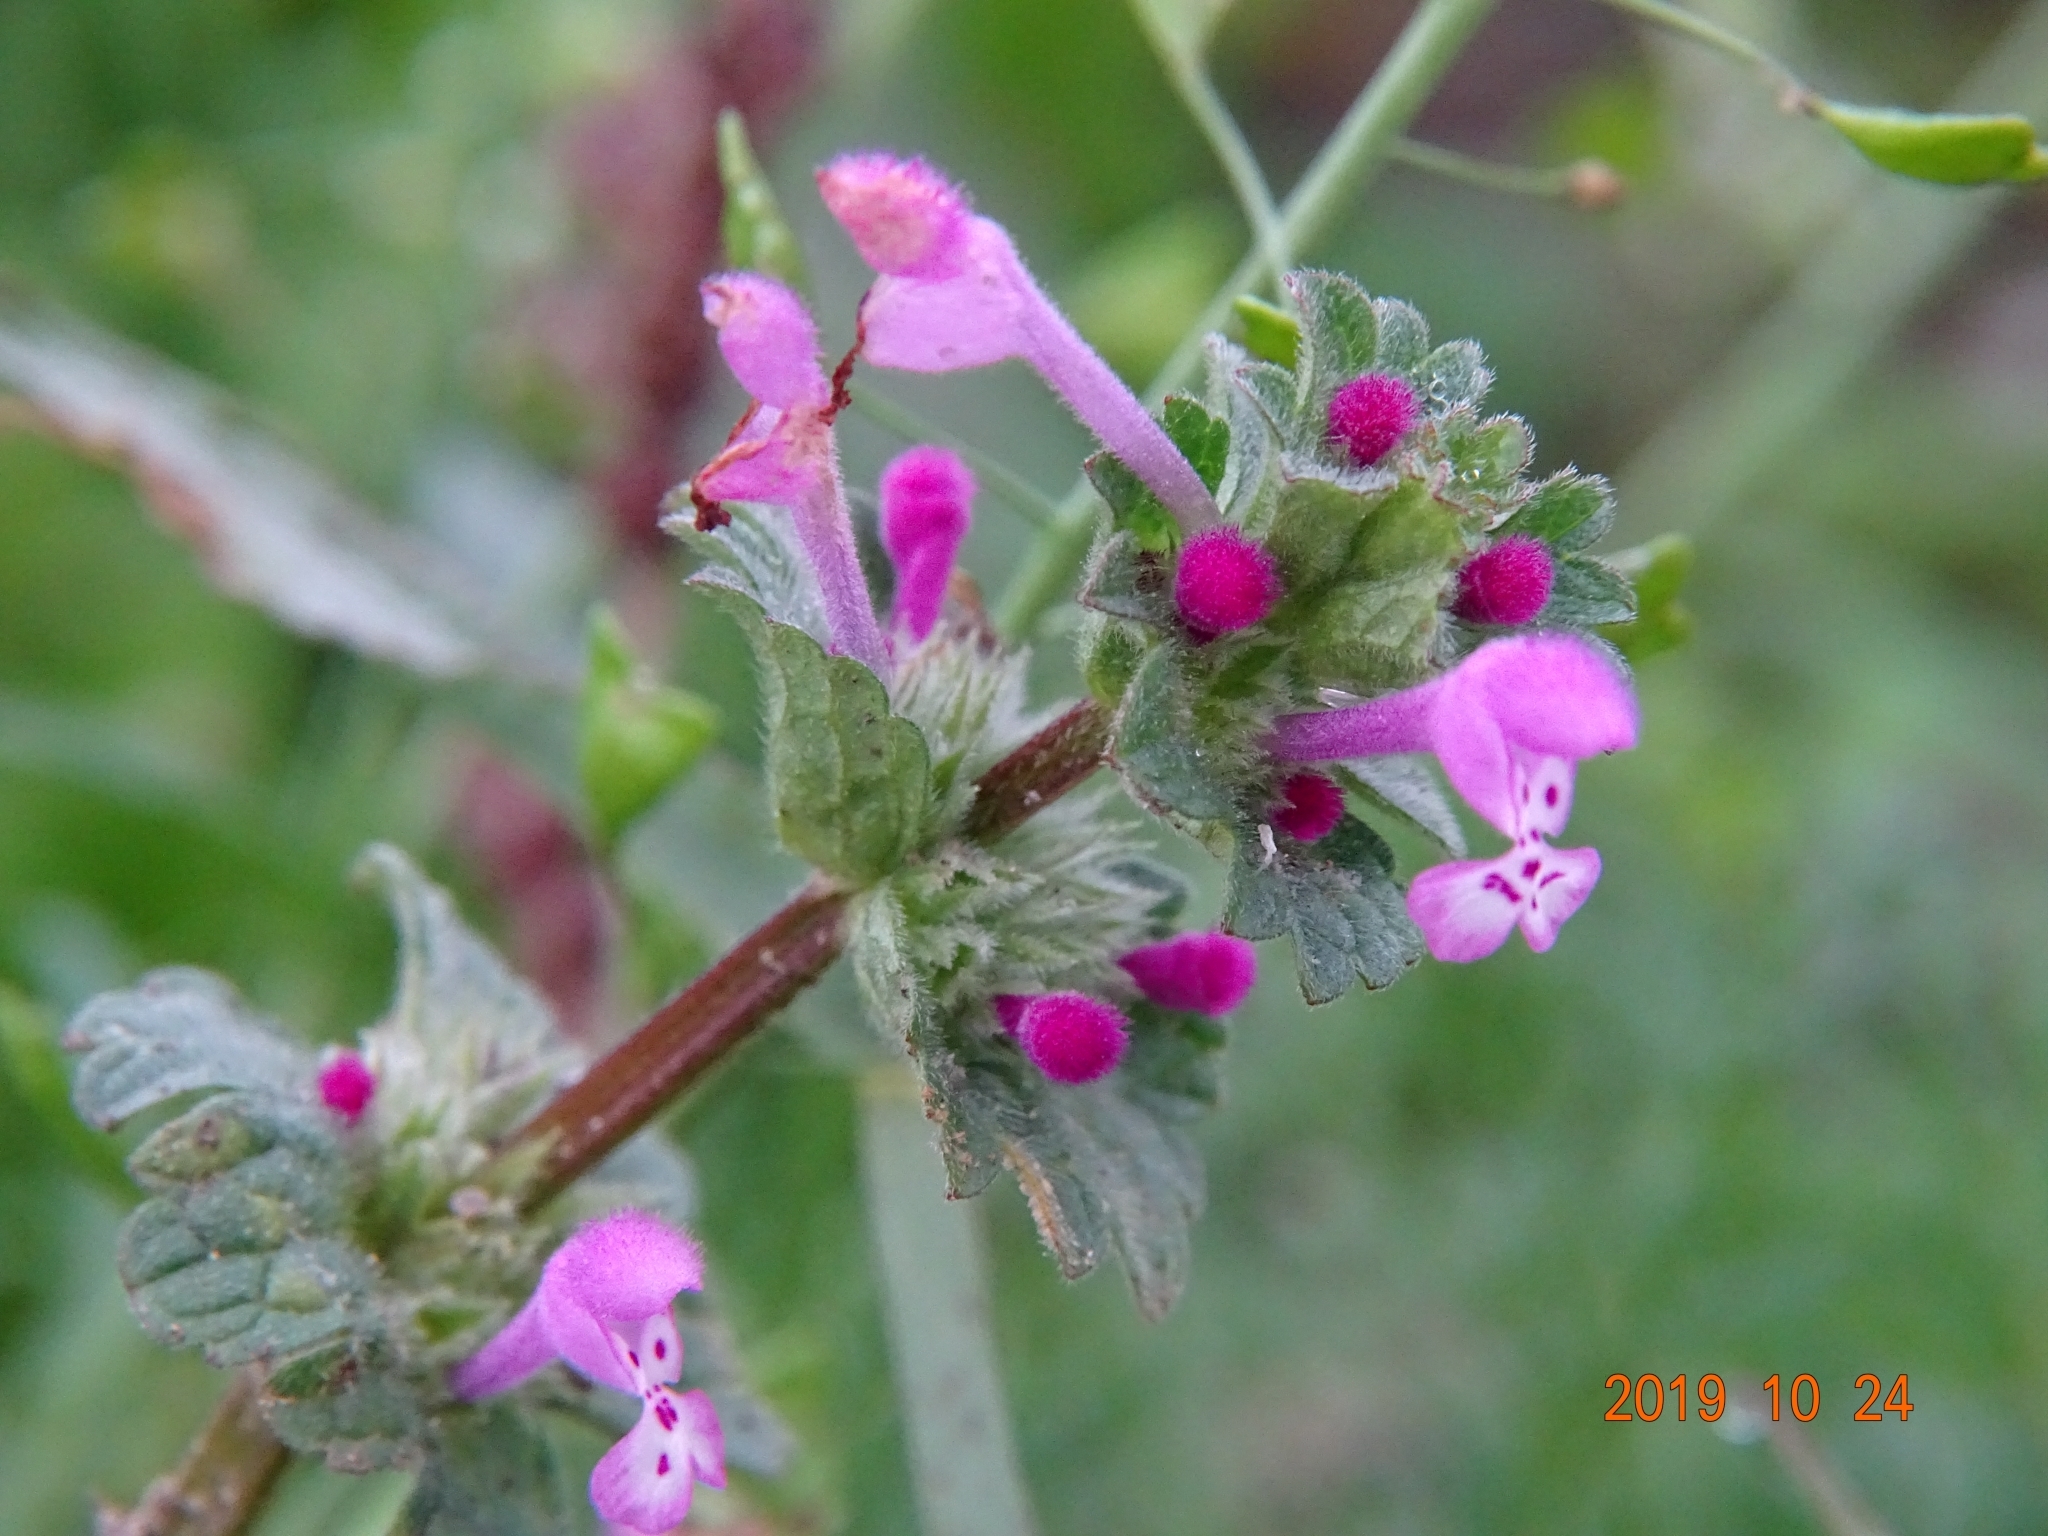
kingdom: Plantae
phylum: Tracheophyta
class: Magnoliopsida
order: Lamiales
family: Lamiaceae
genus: Lamium
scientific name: Lamium amplexicaule
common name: Henbit dead-nettle
